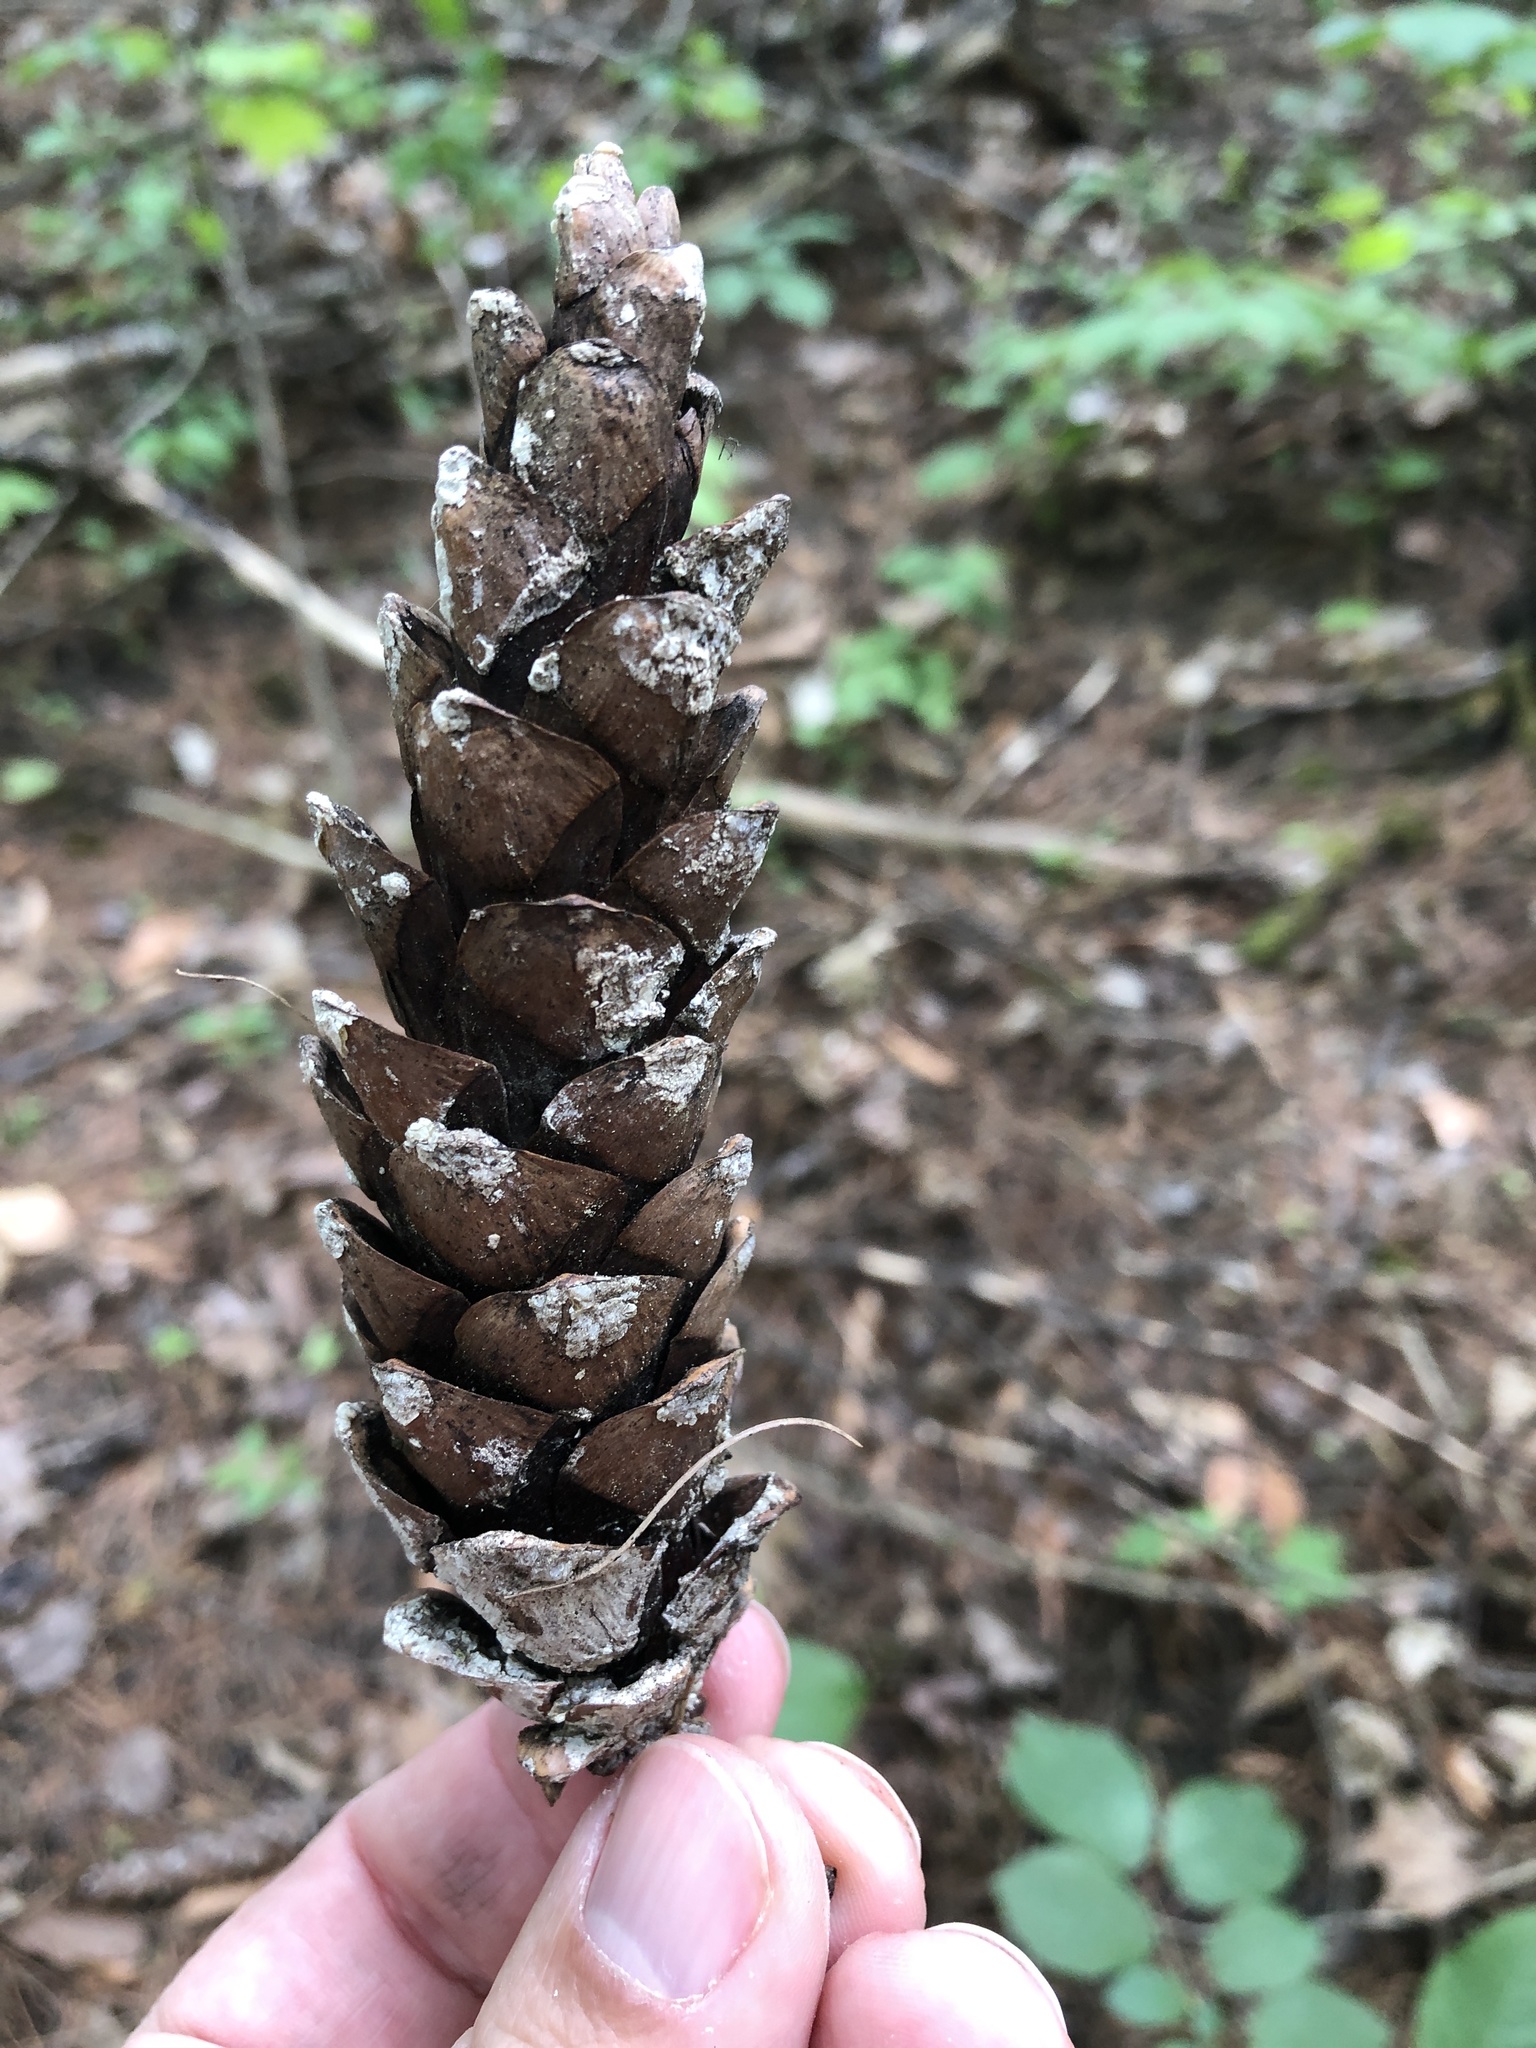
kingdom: Plantae
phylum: Tracheophyta
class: Pinopsida
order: Pinales
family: Pinaceae
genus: Pinus
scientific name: Pinus strobus
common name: Weymouth pine
